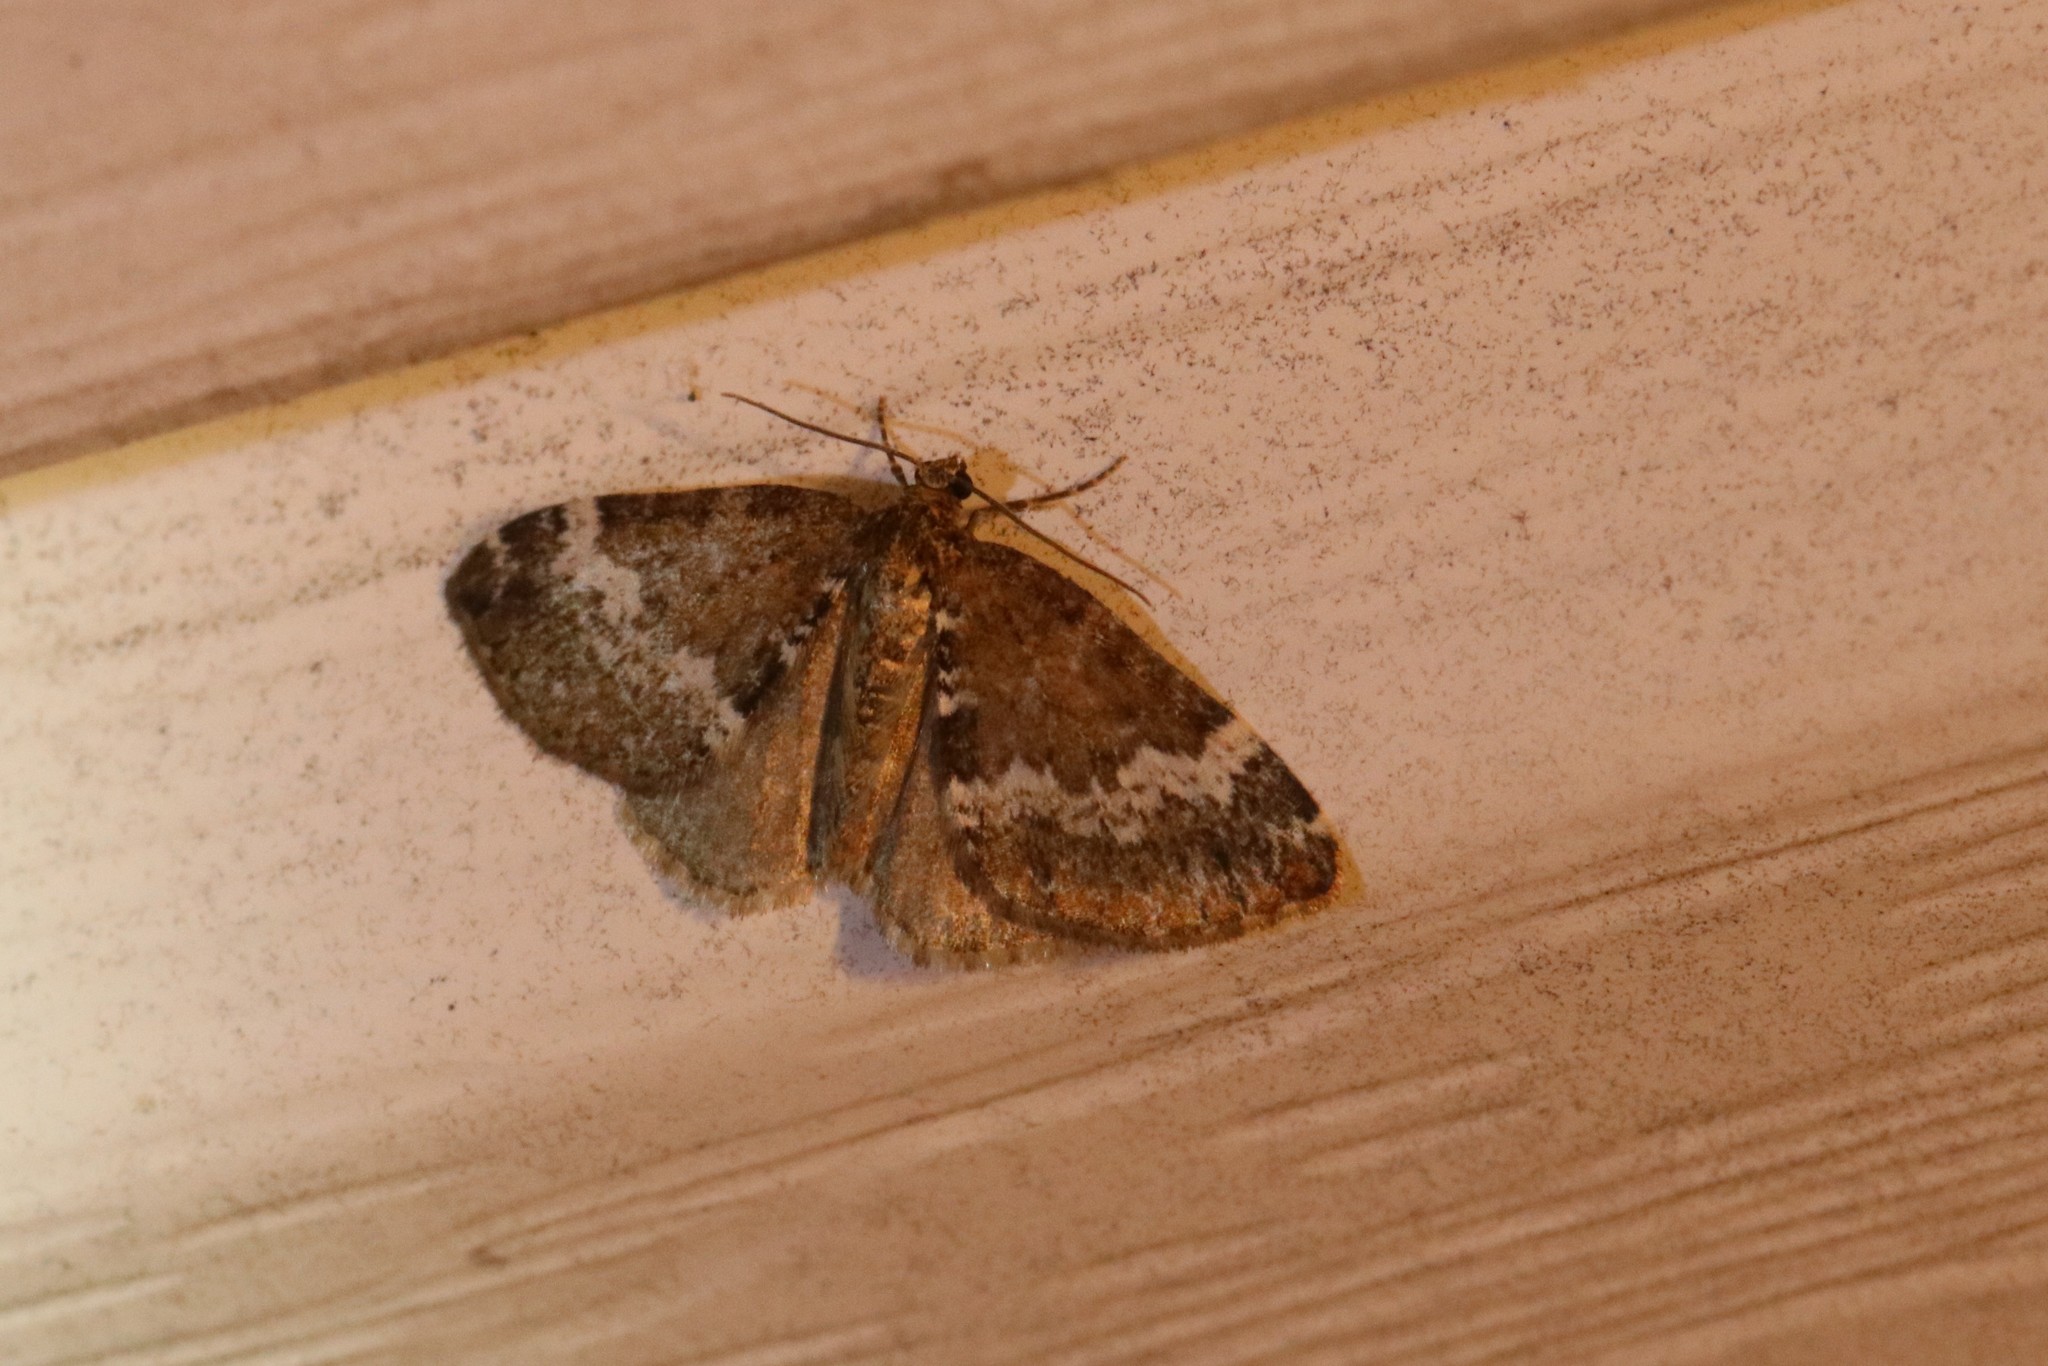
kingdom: Animalia
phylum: Arthropoda
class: Insecta
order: Lepidoptera
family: Geometridae
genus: Perizoma
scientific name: Perizoma alchemillata
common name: Small rivulet
